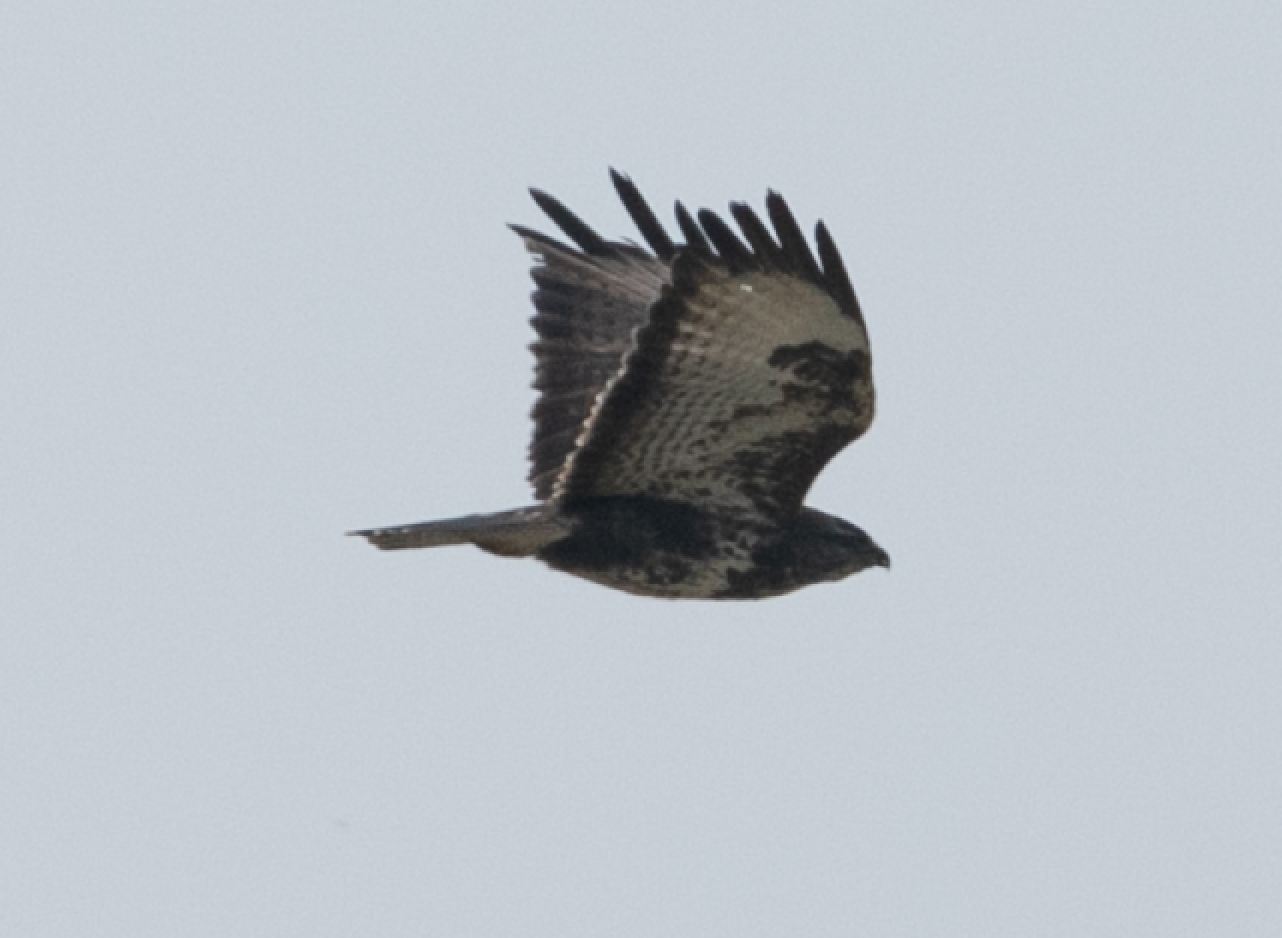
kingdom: Animalia
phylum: Chordata
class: Aves
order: Accipitriformes
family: Accipitridae
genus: Buteo
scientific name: Buteo buteo
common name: Common buzzard
